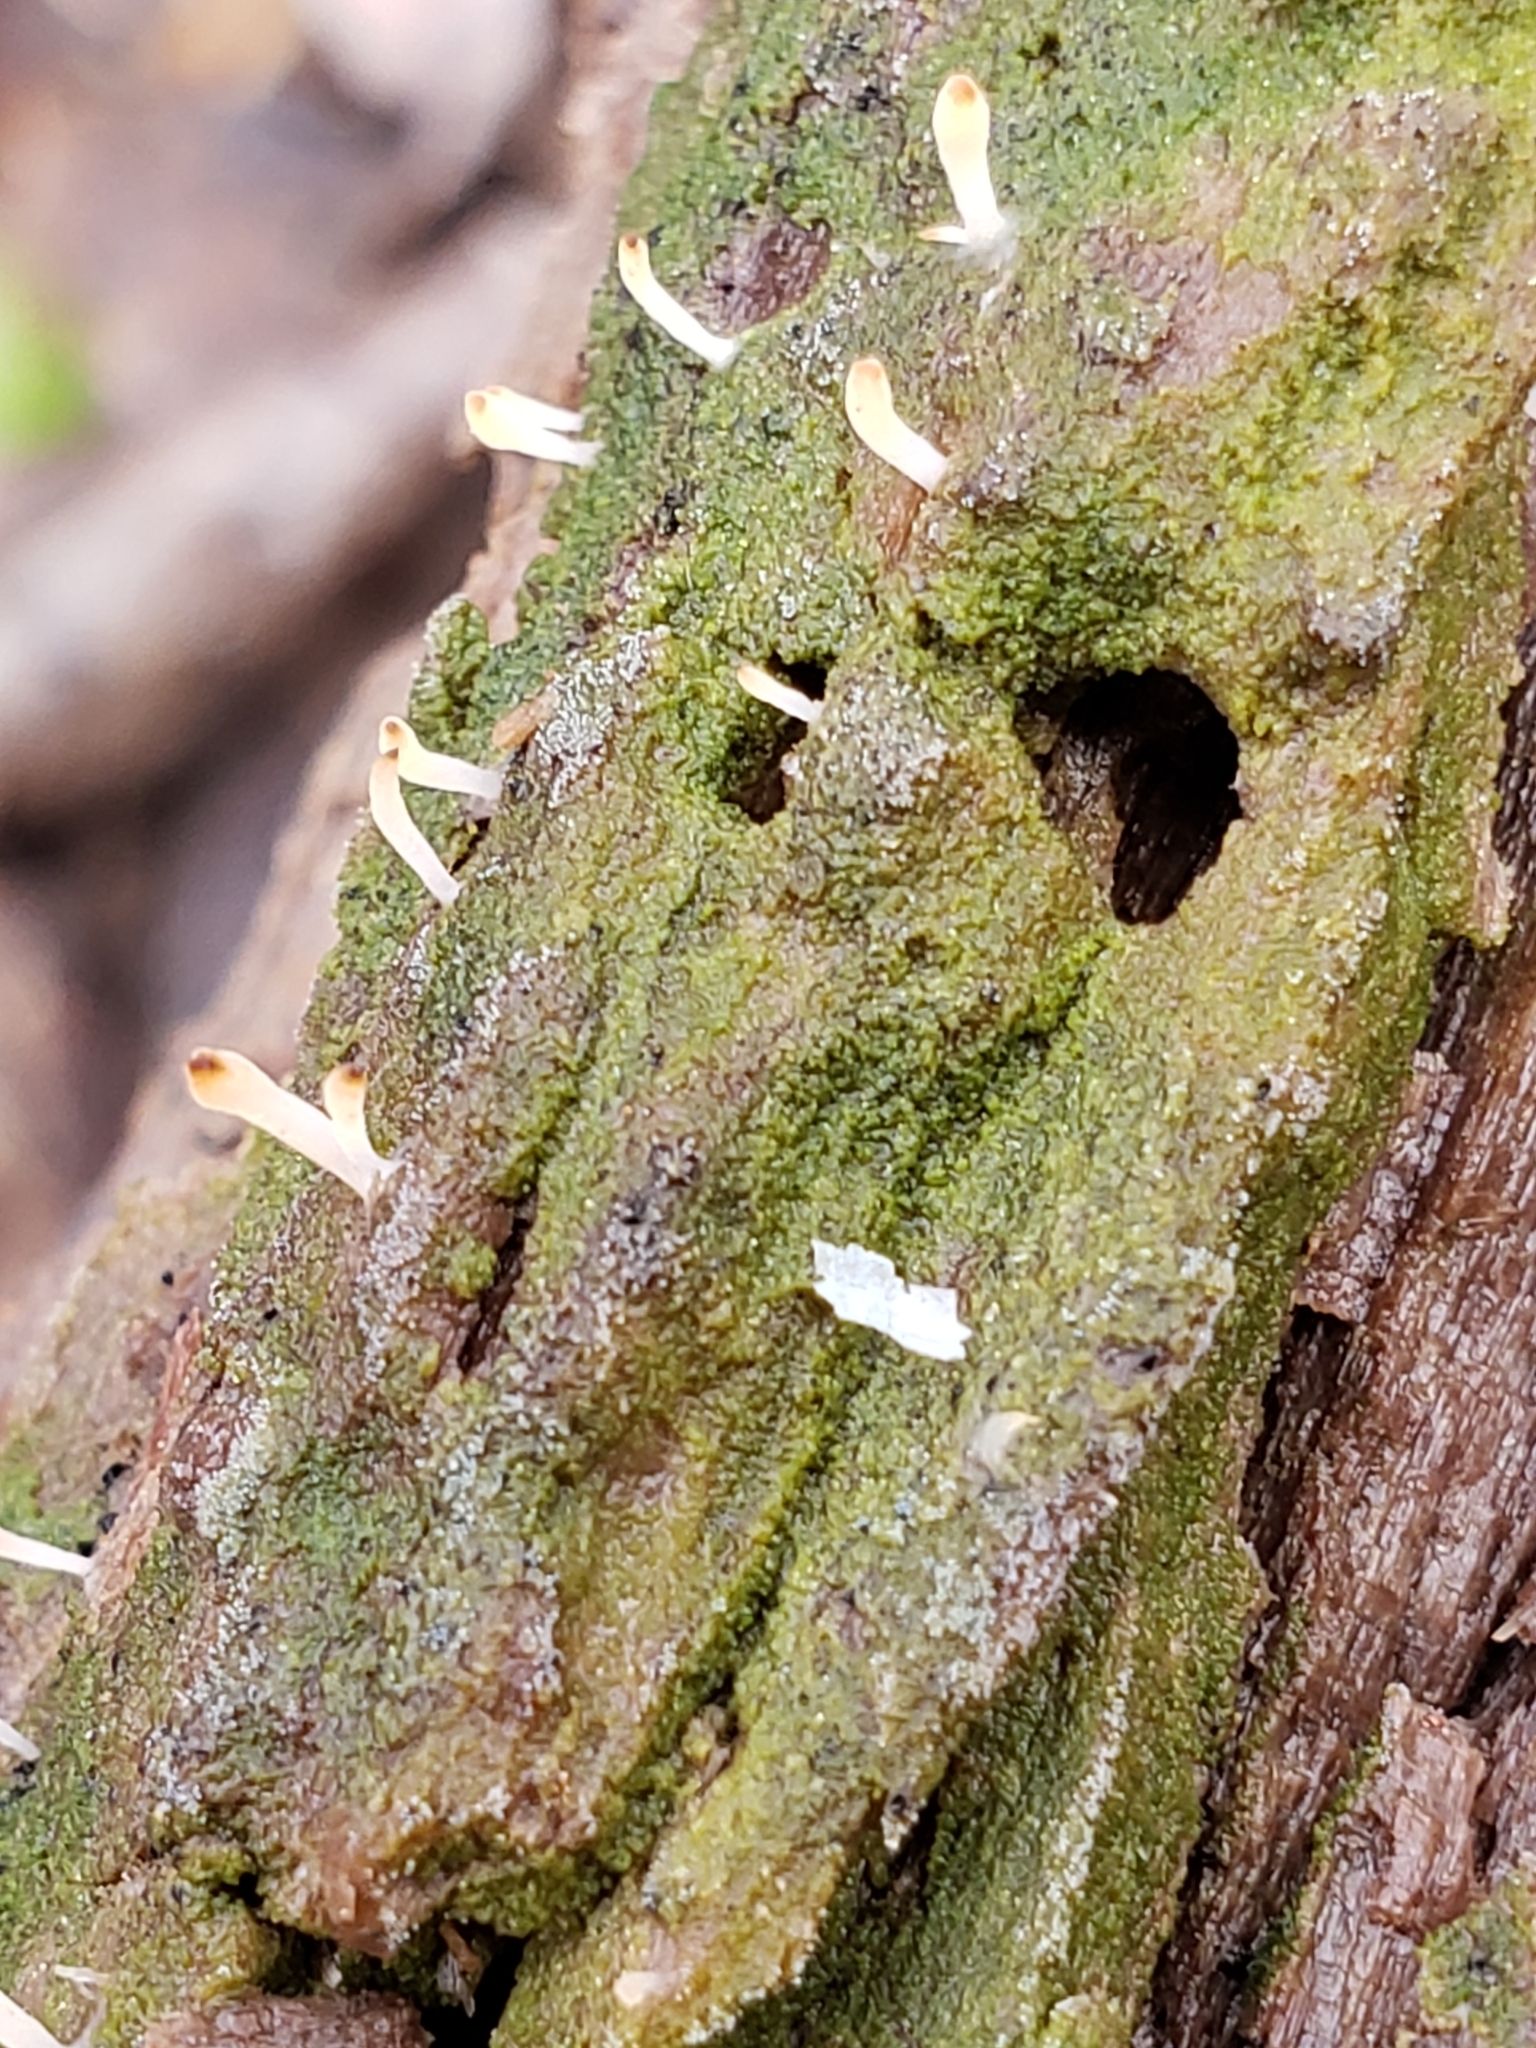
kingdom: Fungi
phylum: Basidiomycota
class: Agaricomycetes
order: Cantharellales
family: Hydnaceae
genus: Multiclavula
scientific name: Multiclavula mucida
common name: White green-algae coral
